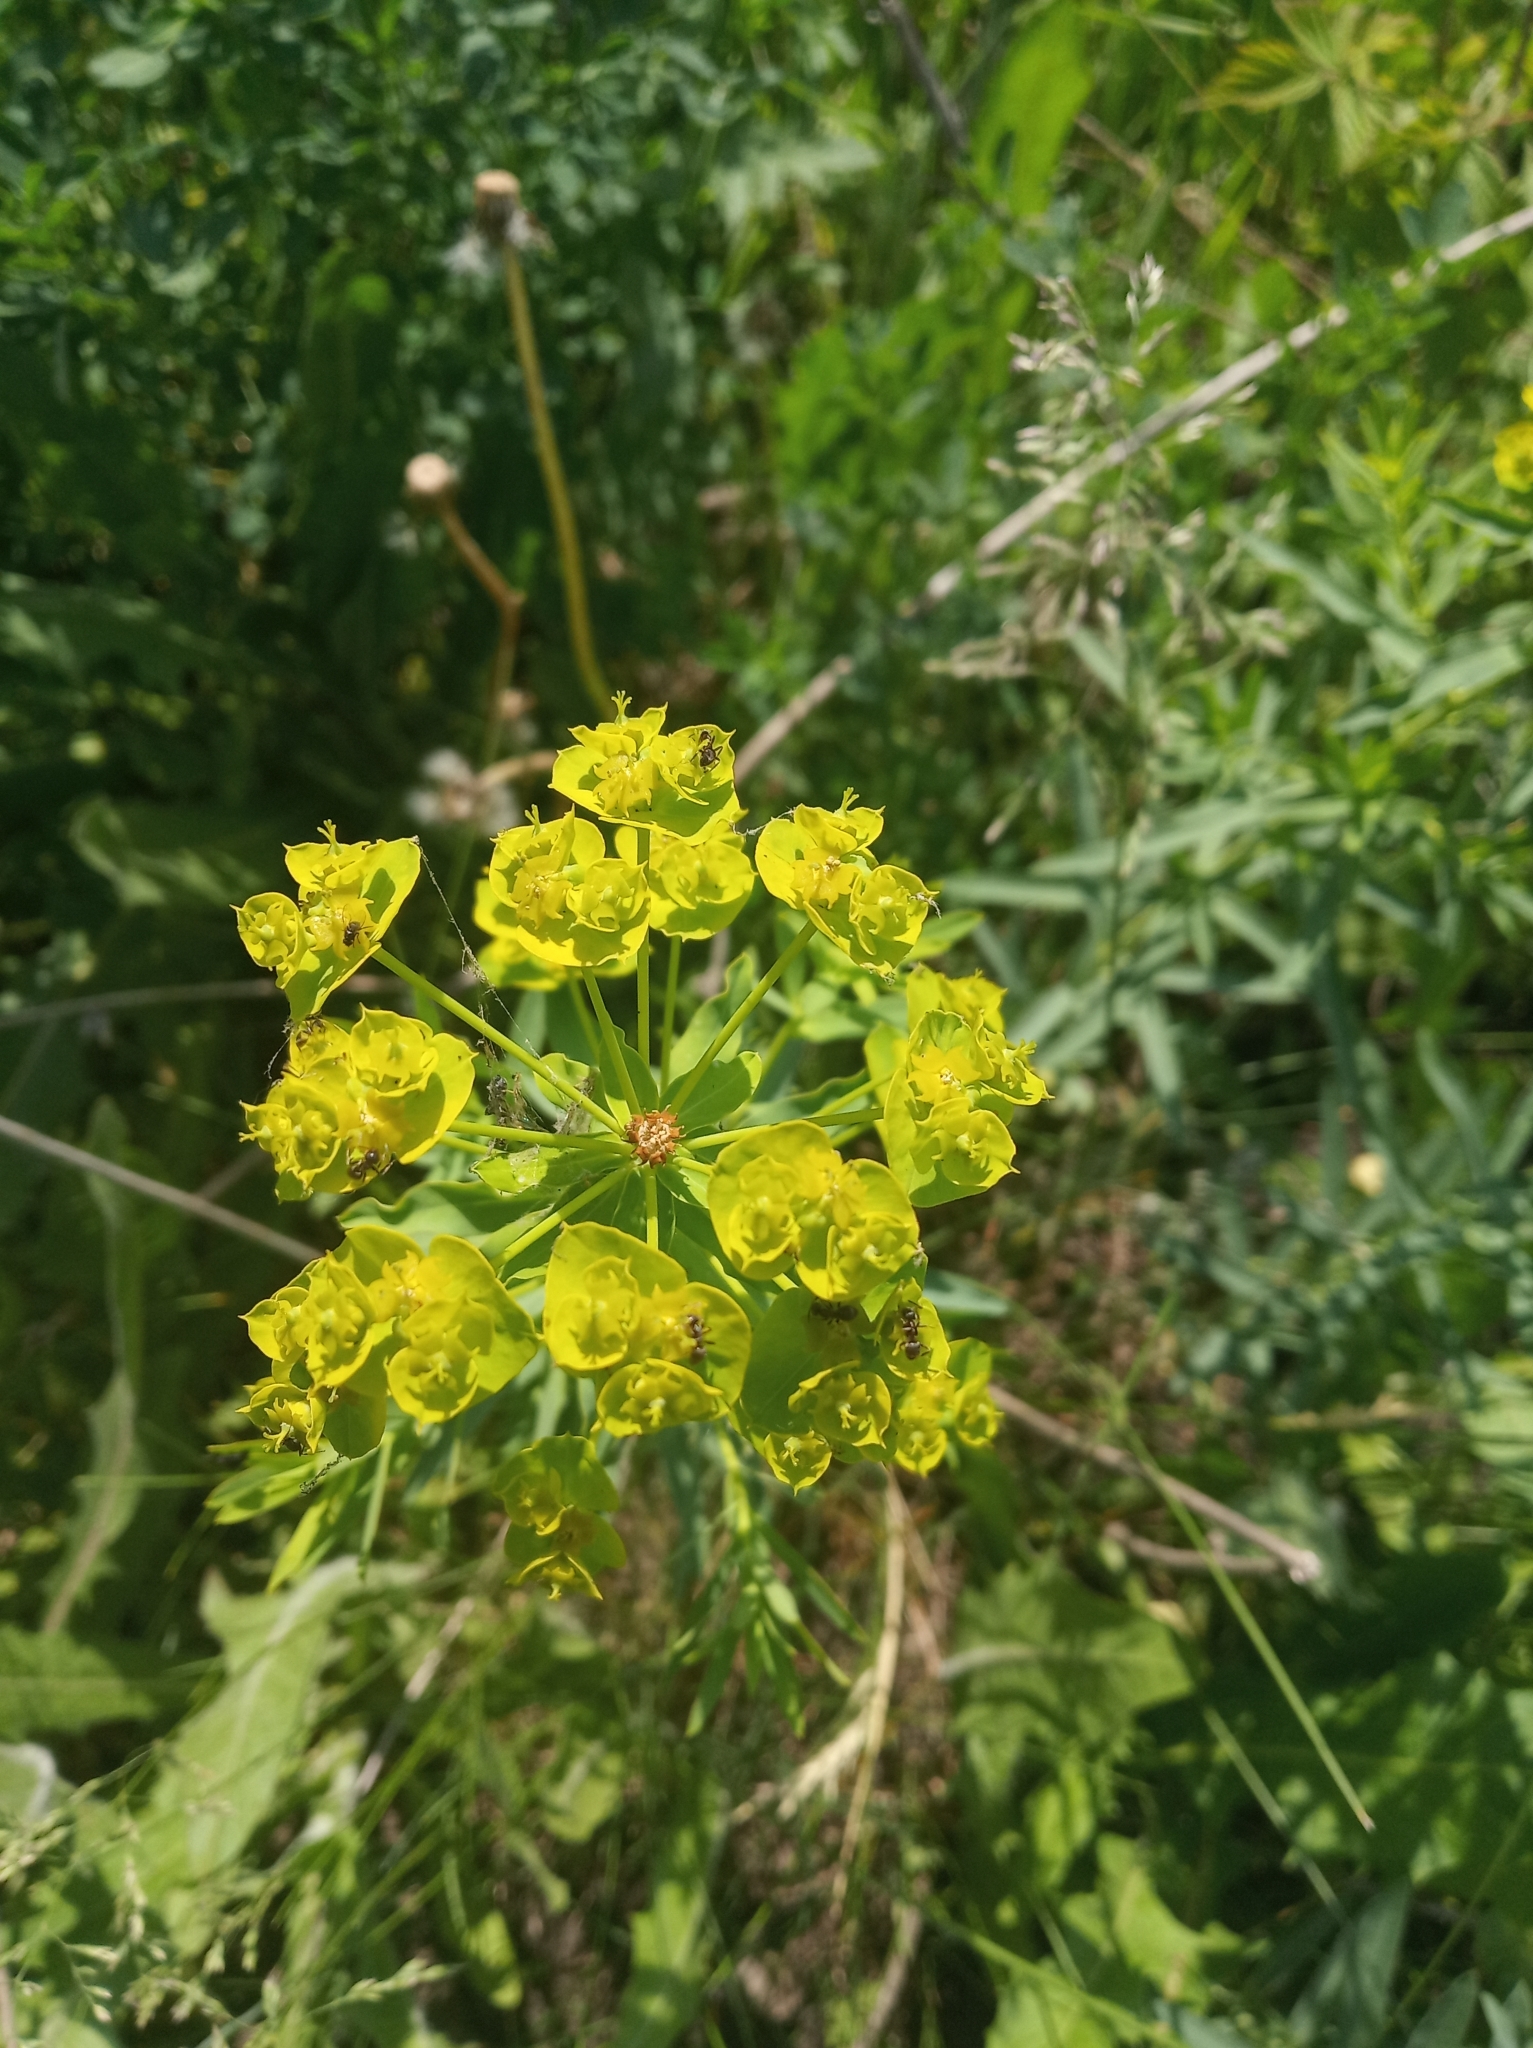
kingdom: Plantae
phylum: Tracheophyta
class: Magnoliopsida
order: Malpighiales
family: Euphorbiaceae
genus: Euphorbia
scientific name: Euphorbia virgata
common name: Leafy spurge
